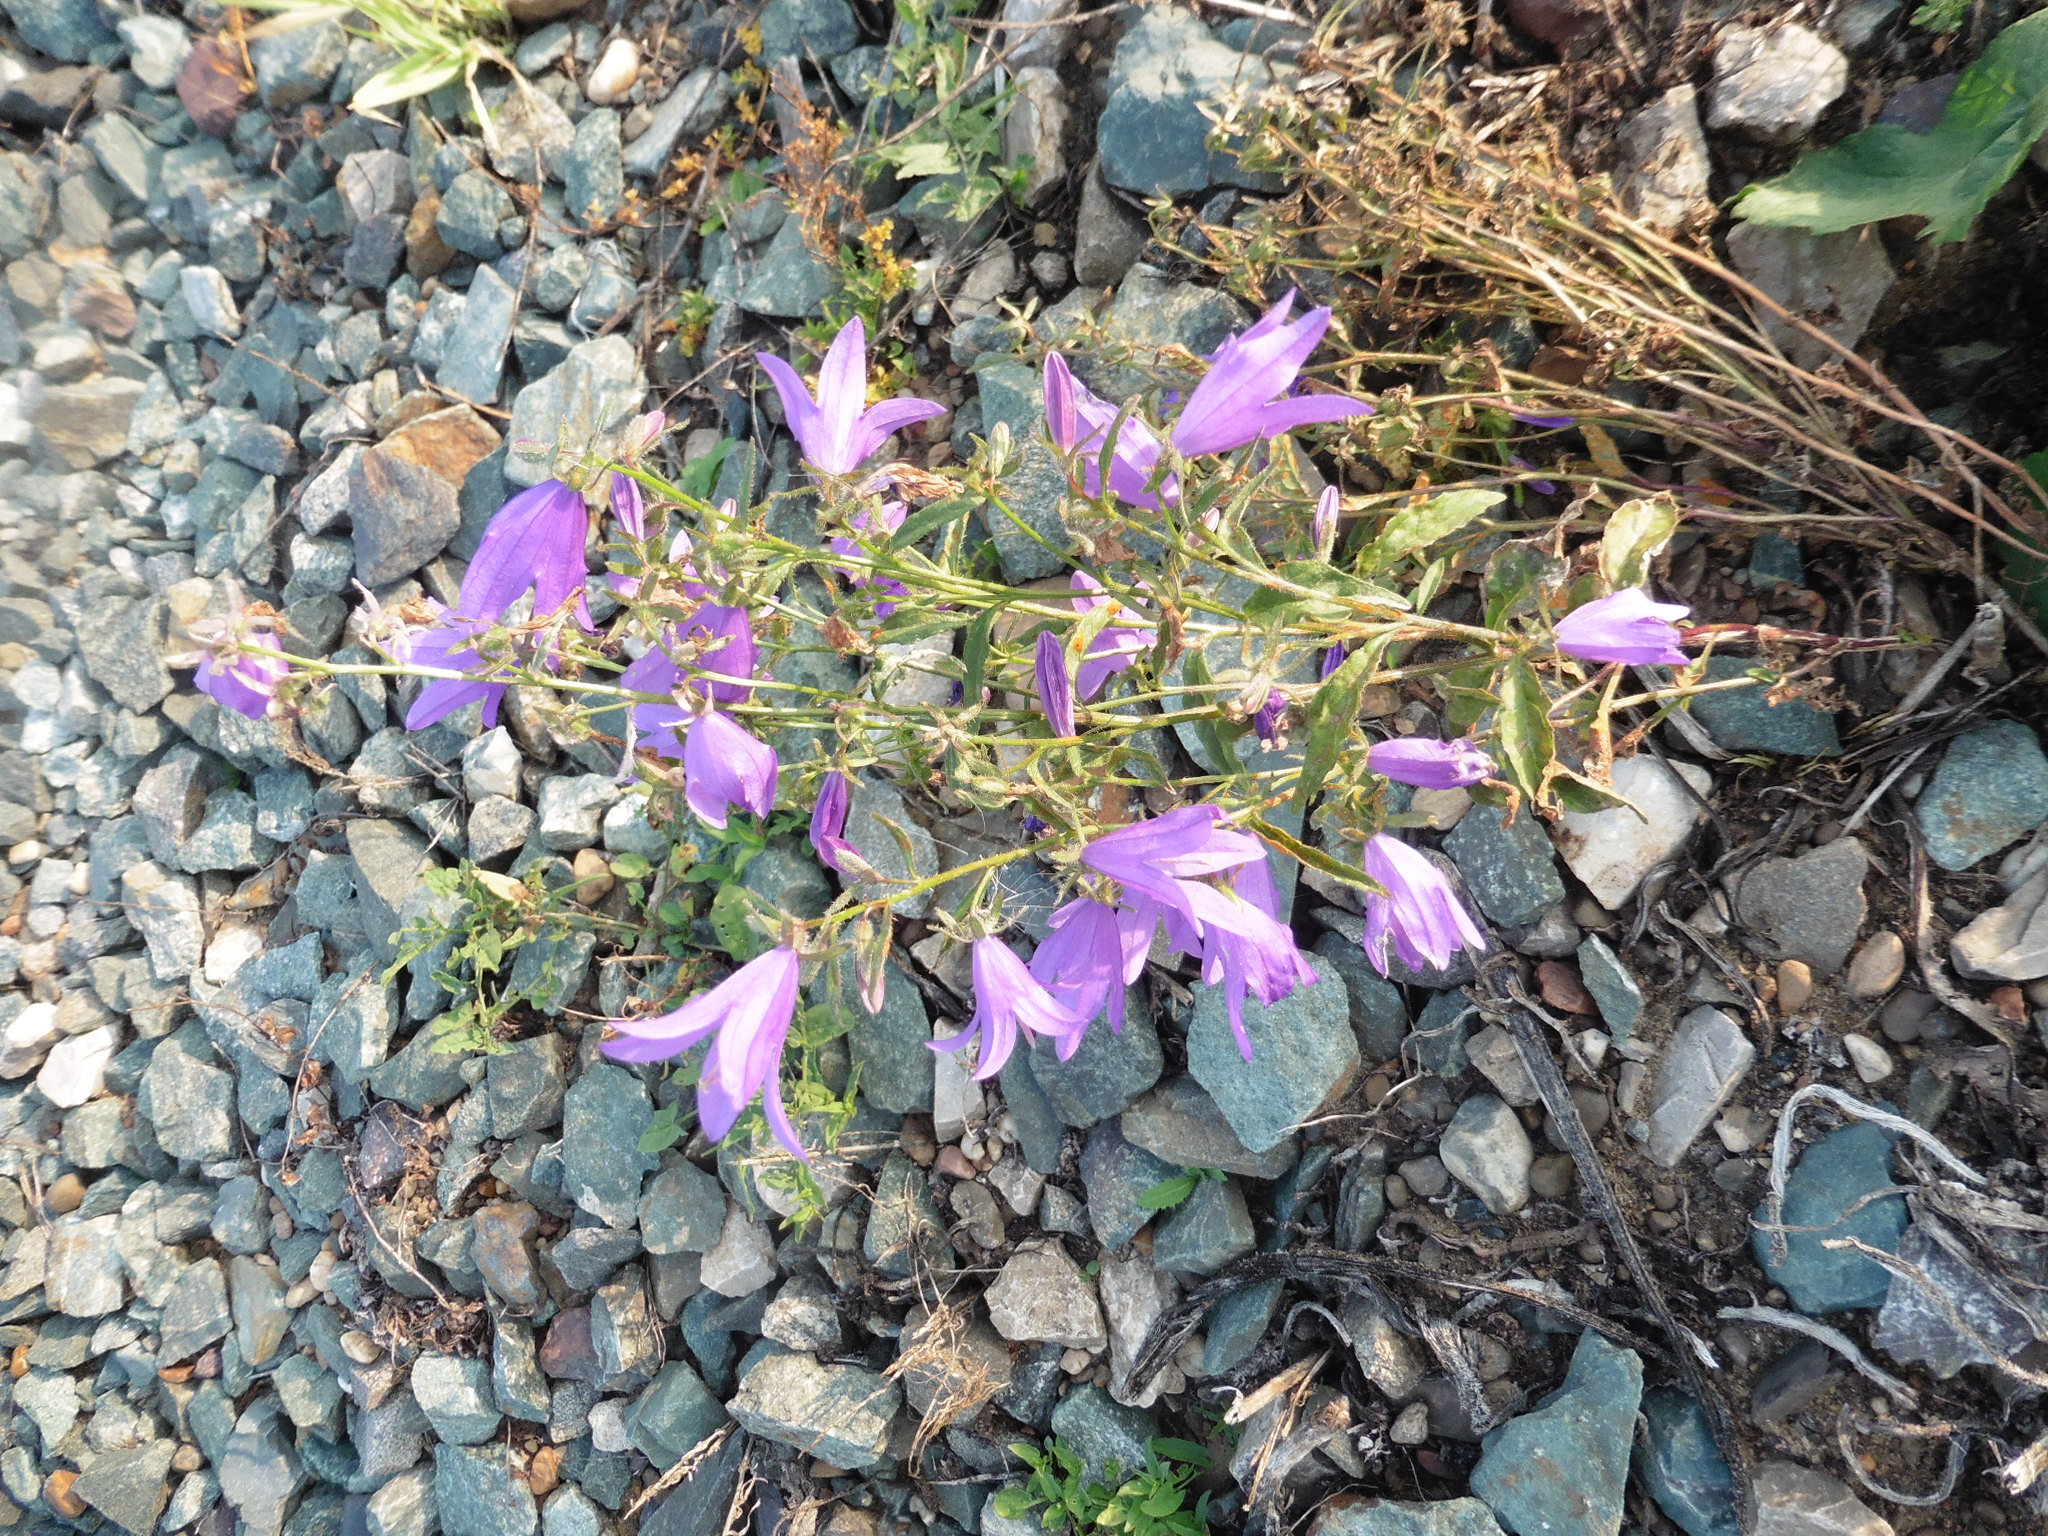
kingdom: Plantae
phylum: Tracheophyta
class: Magnoliopsida
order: Asterales
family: Campanulaceae
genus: Campanula
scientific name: Campanula rapunculoides
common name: Creeping bellflower
